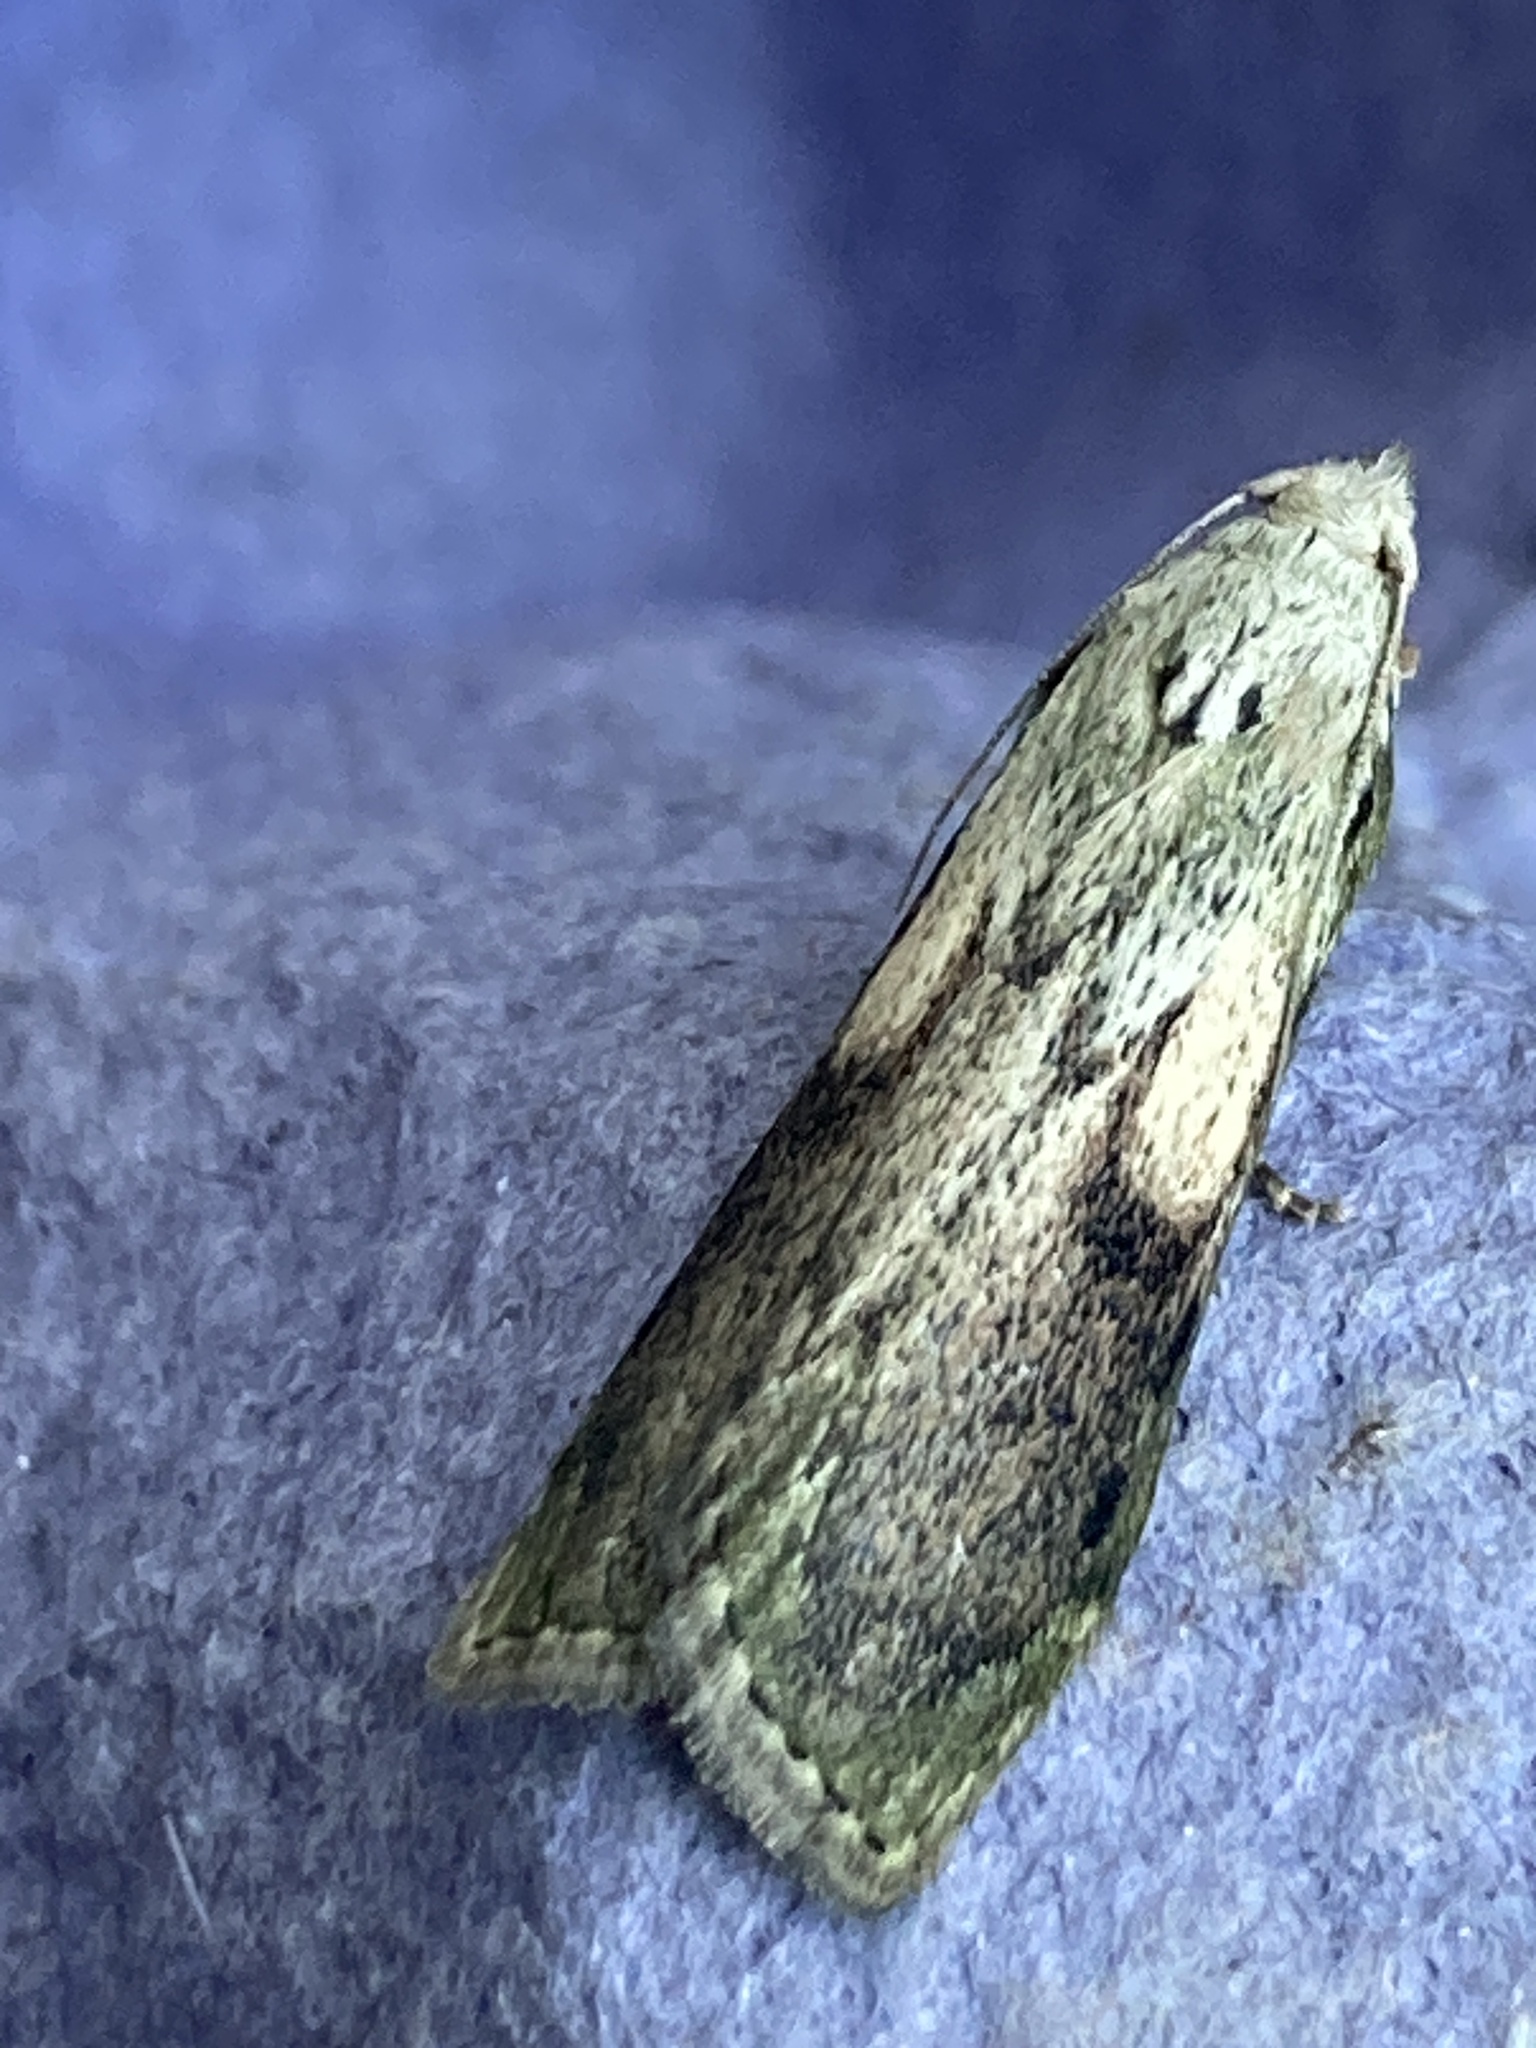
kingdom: Animalia
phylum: Arthropoda
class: Insecta
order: Lepidoptera
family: Pyralidae
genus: Aphomia
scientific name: Aphomia sociella
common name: Bee moth
